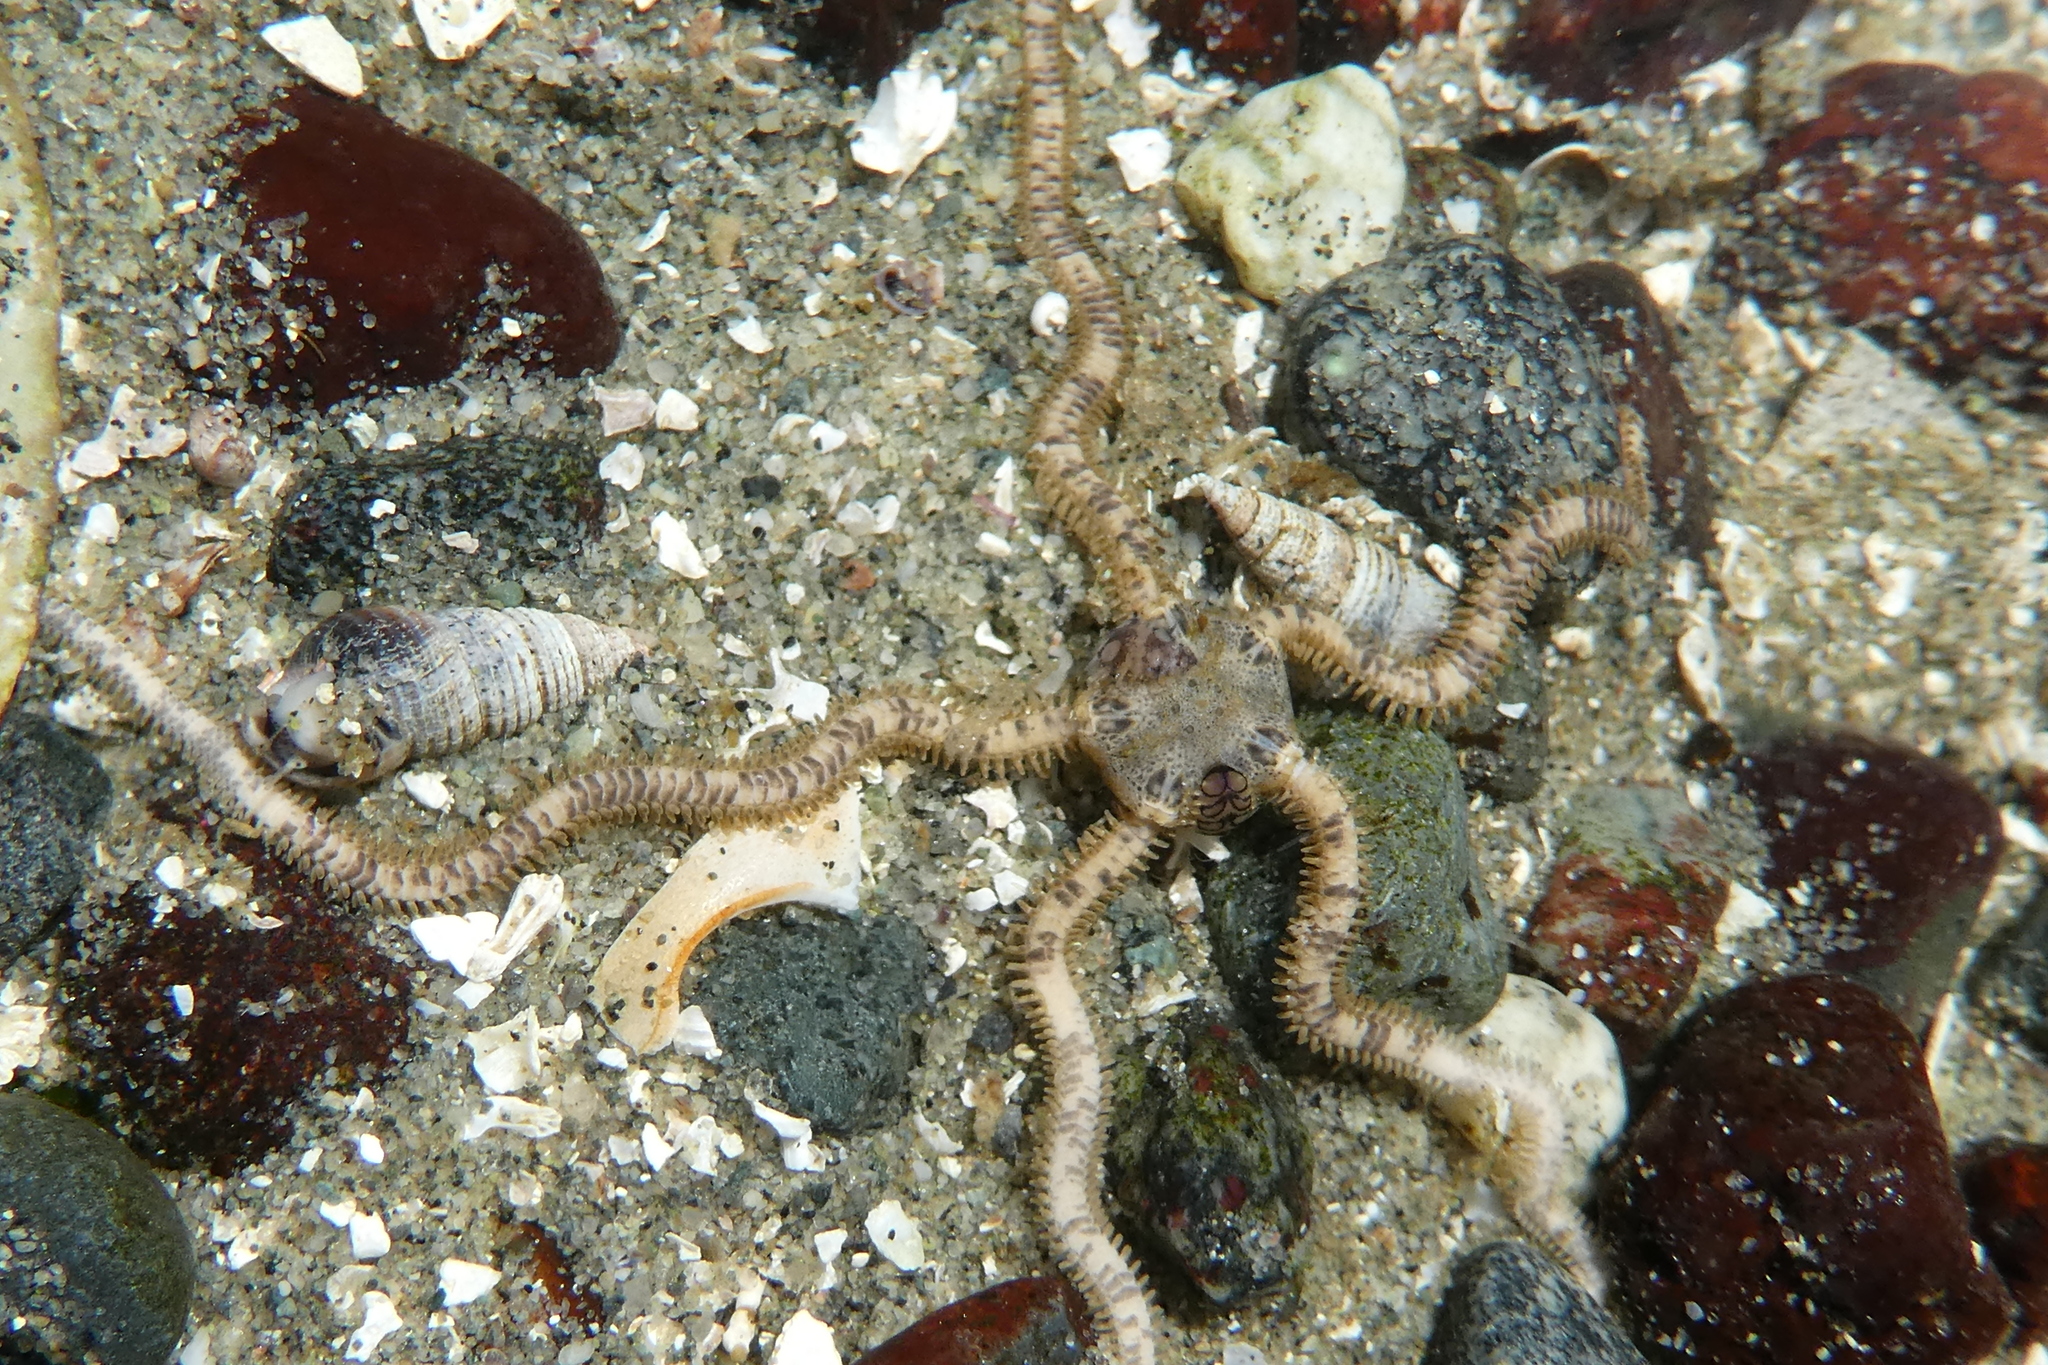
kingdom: Animalia
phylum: Echinodermata
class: Ophiuroidea
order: Amphilepidida
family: Amphiuridae
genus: Amphiodia
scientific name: Amphiodia occidentalis
